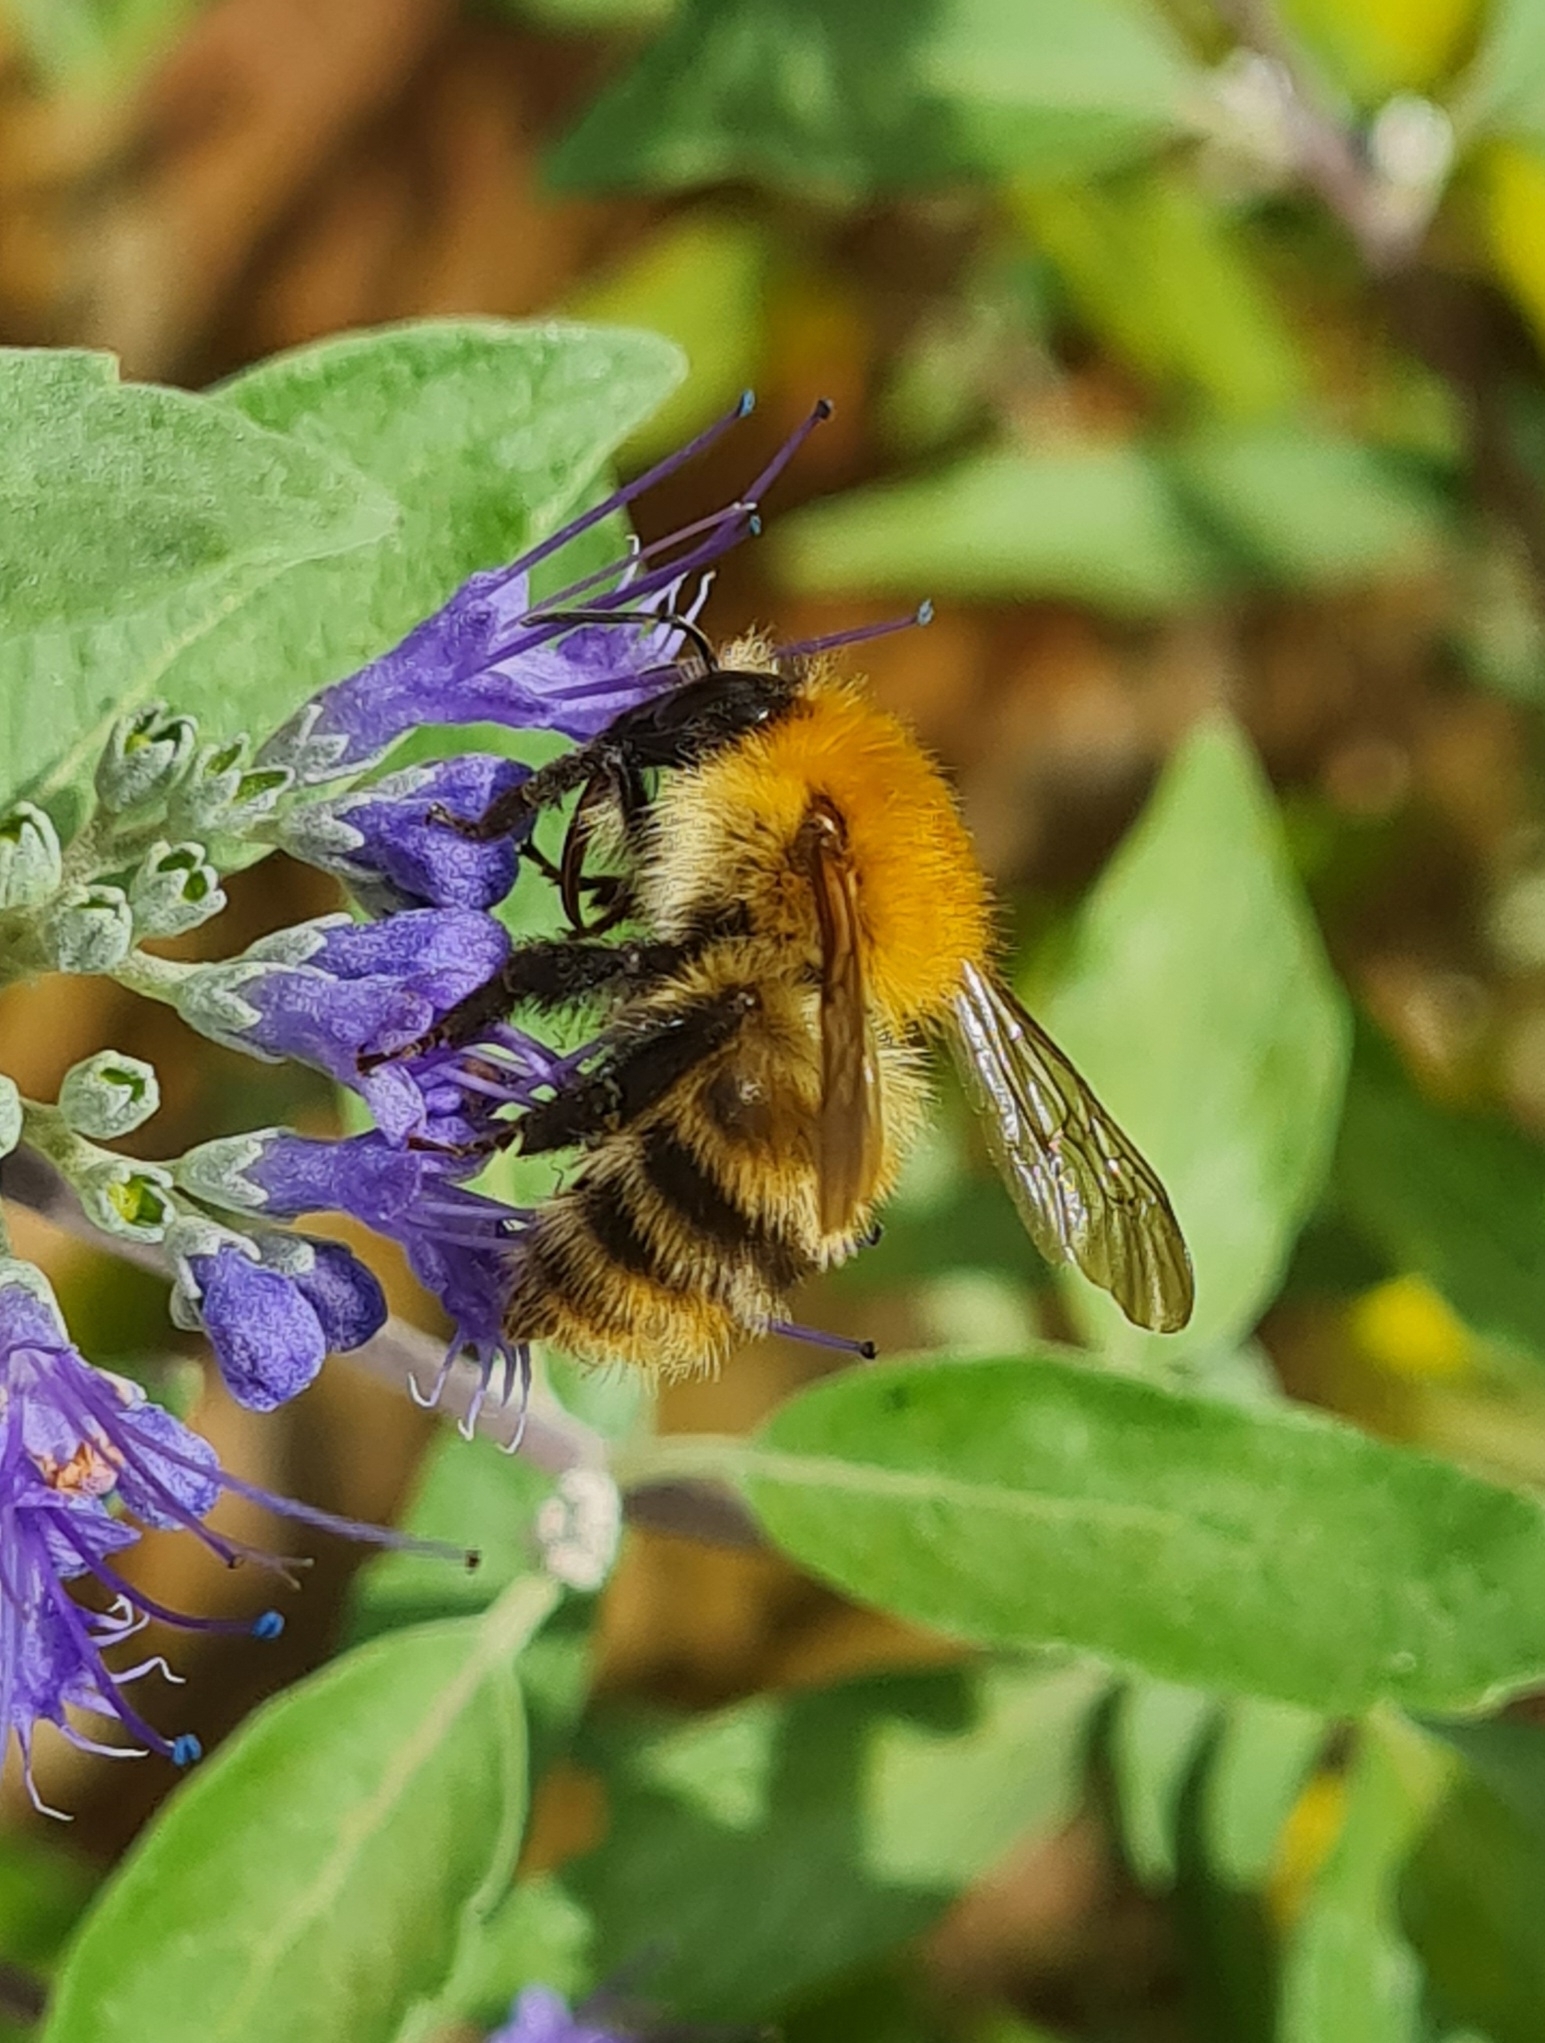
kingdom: Animalia
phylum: Arthropoda
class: Insecta
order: Hymenoptera
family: Apidae
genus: Bombus
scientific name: Bombus pascuorum
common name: Common carder bee
